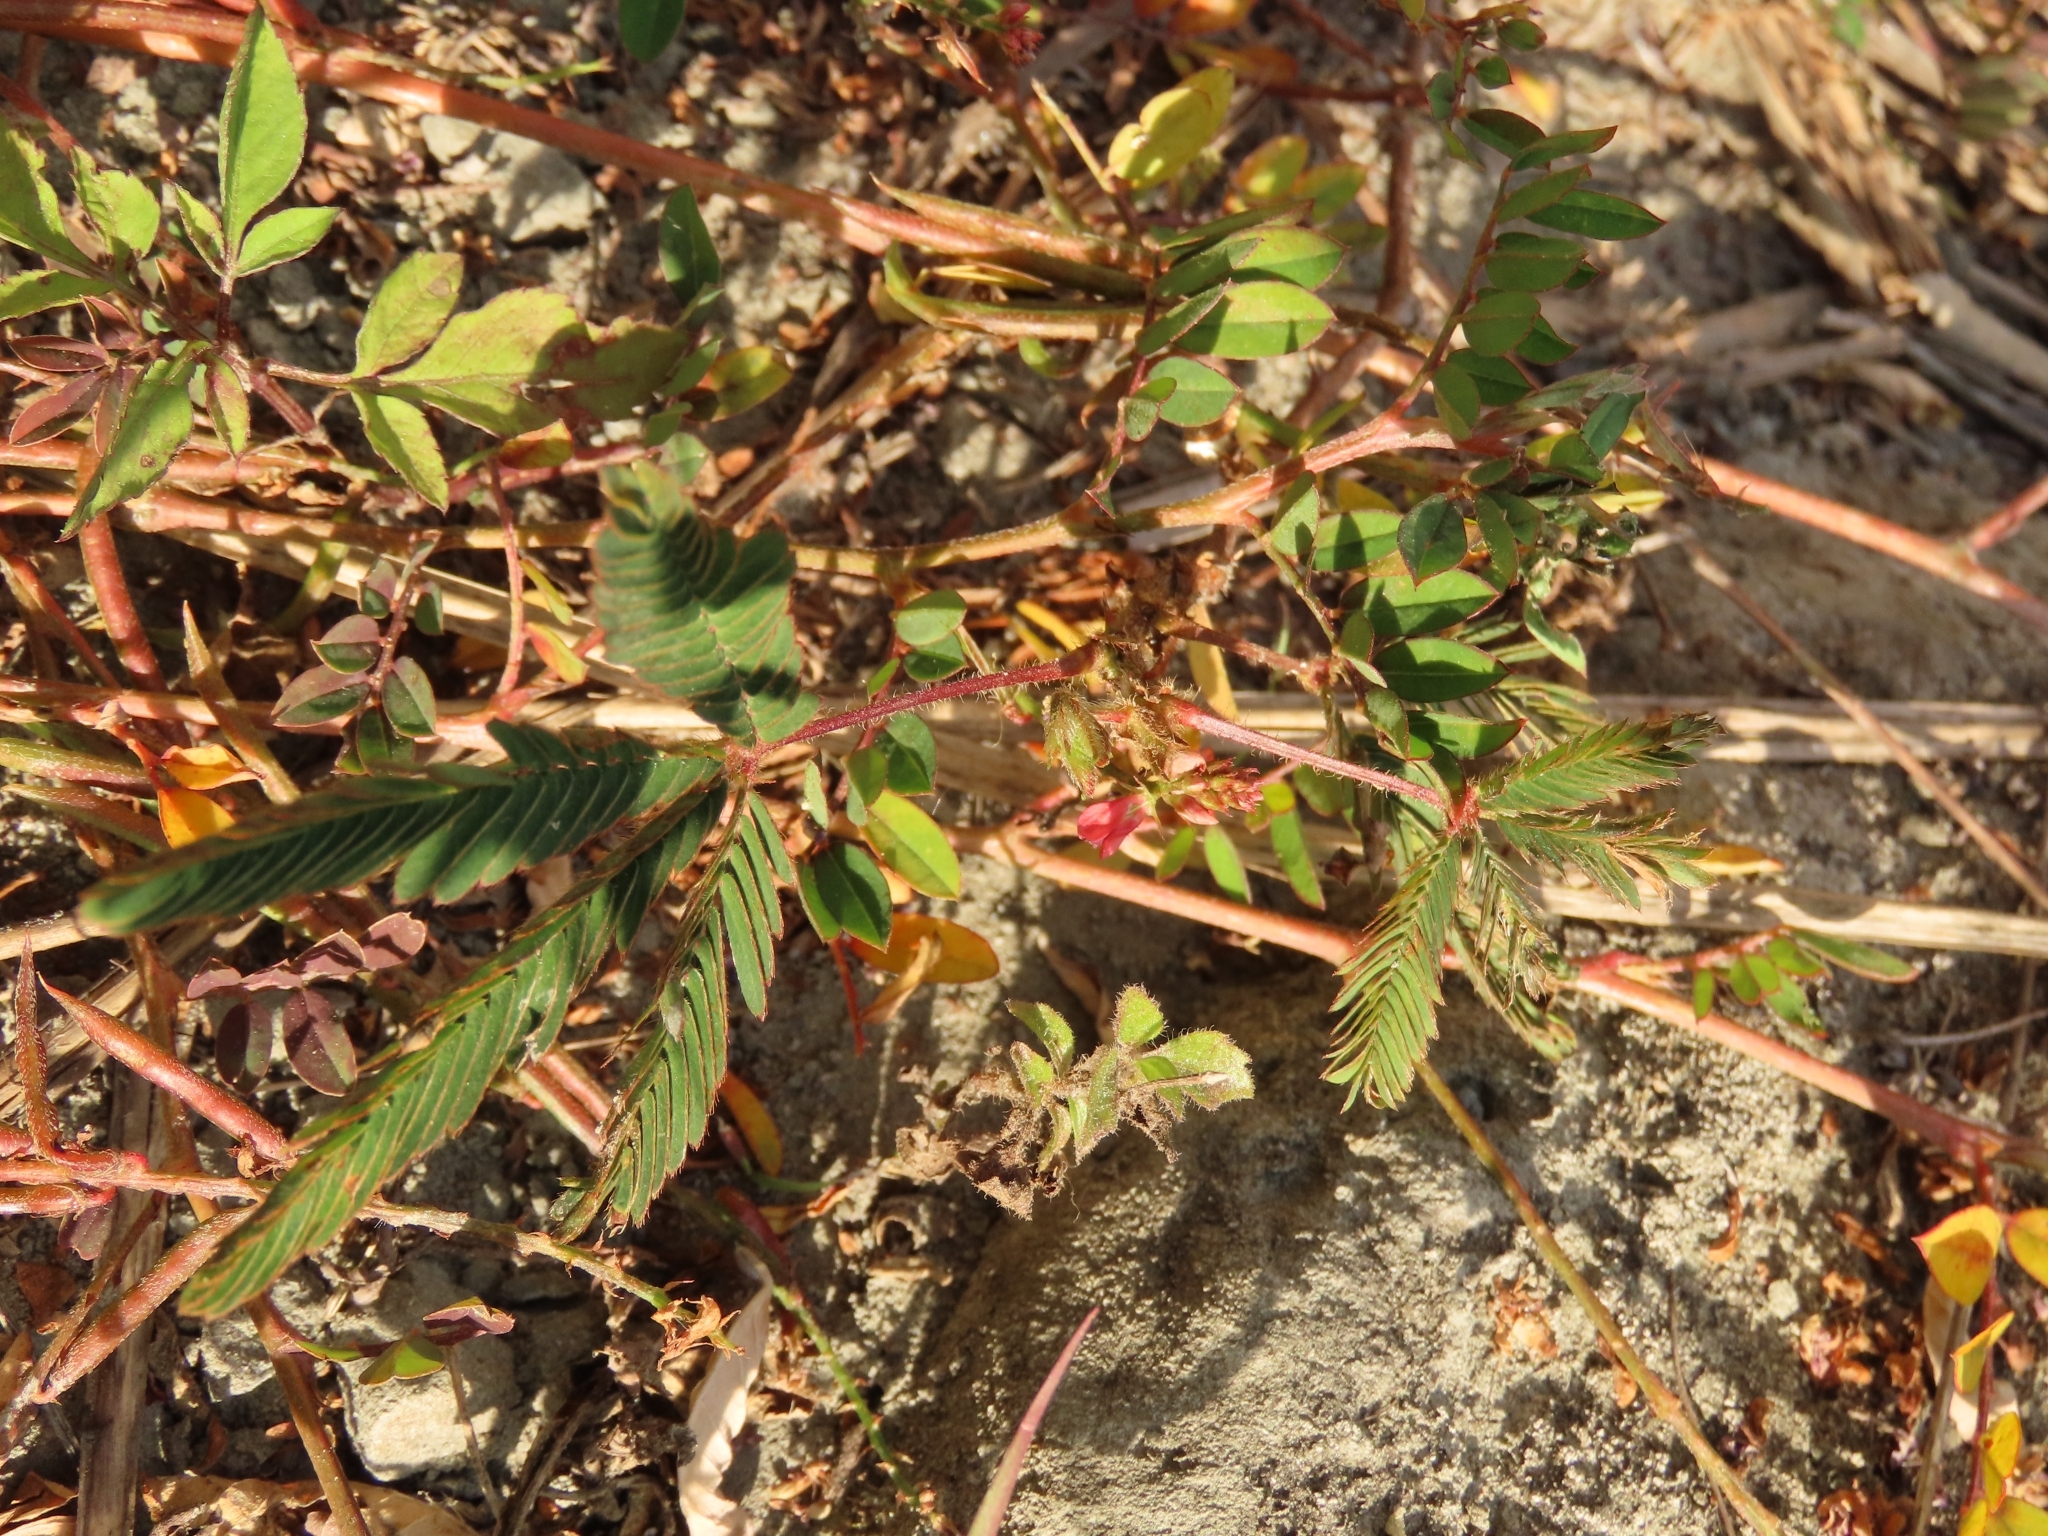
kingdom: Plantae
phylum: Tracheophyta
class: Magnoliopsida
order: Fabales
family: Fabaceae
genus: Mimosa
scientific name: Mimosa pudica
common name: Sensitive plant
